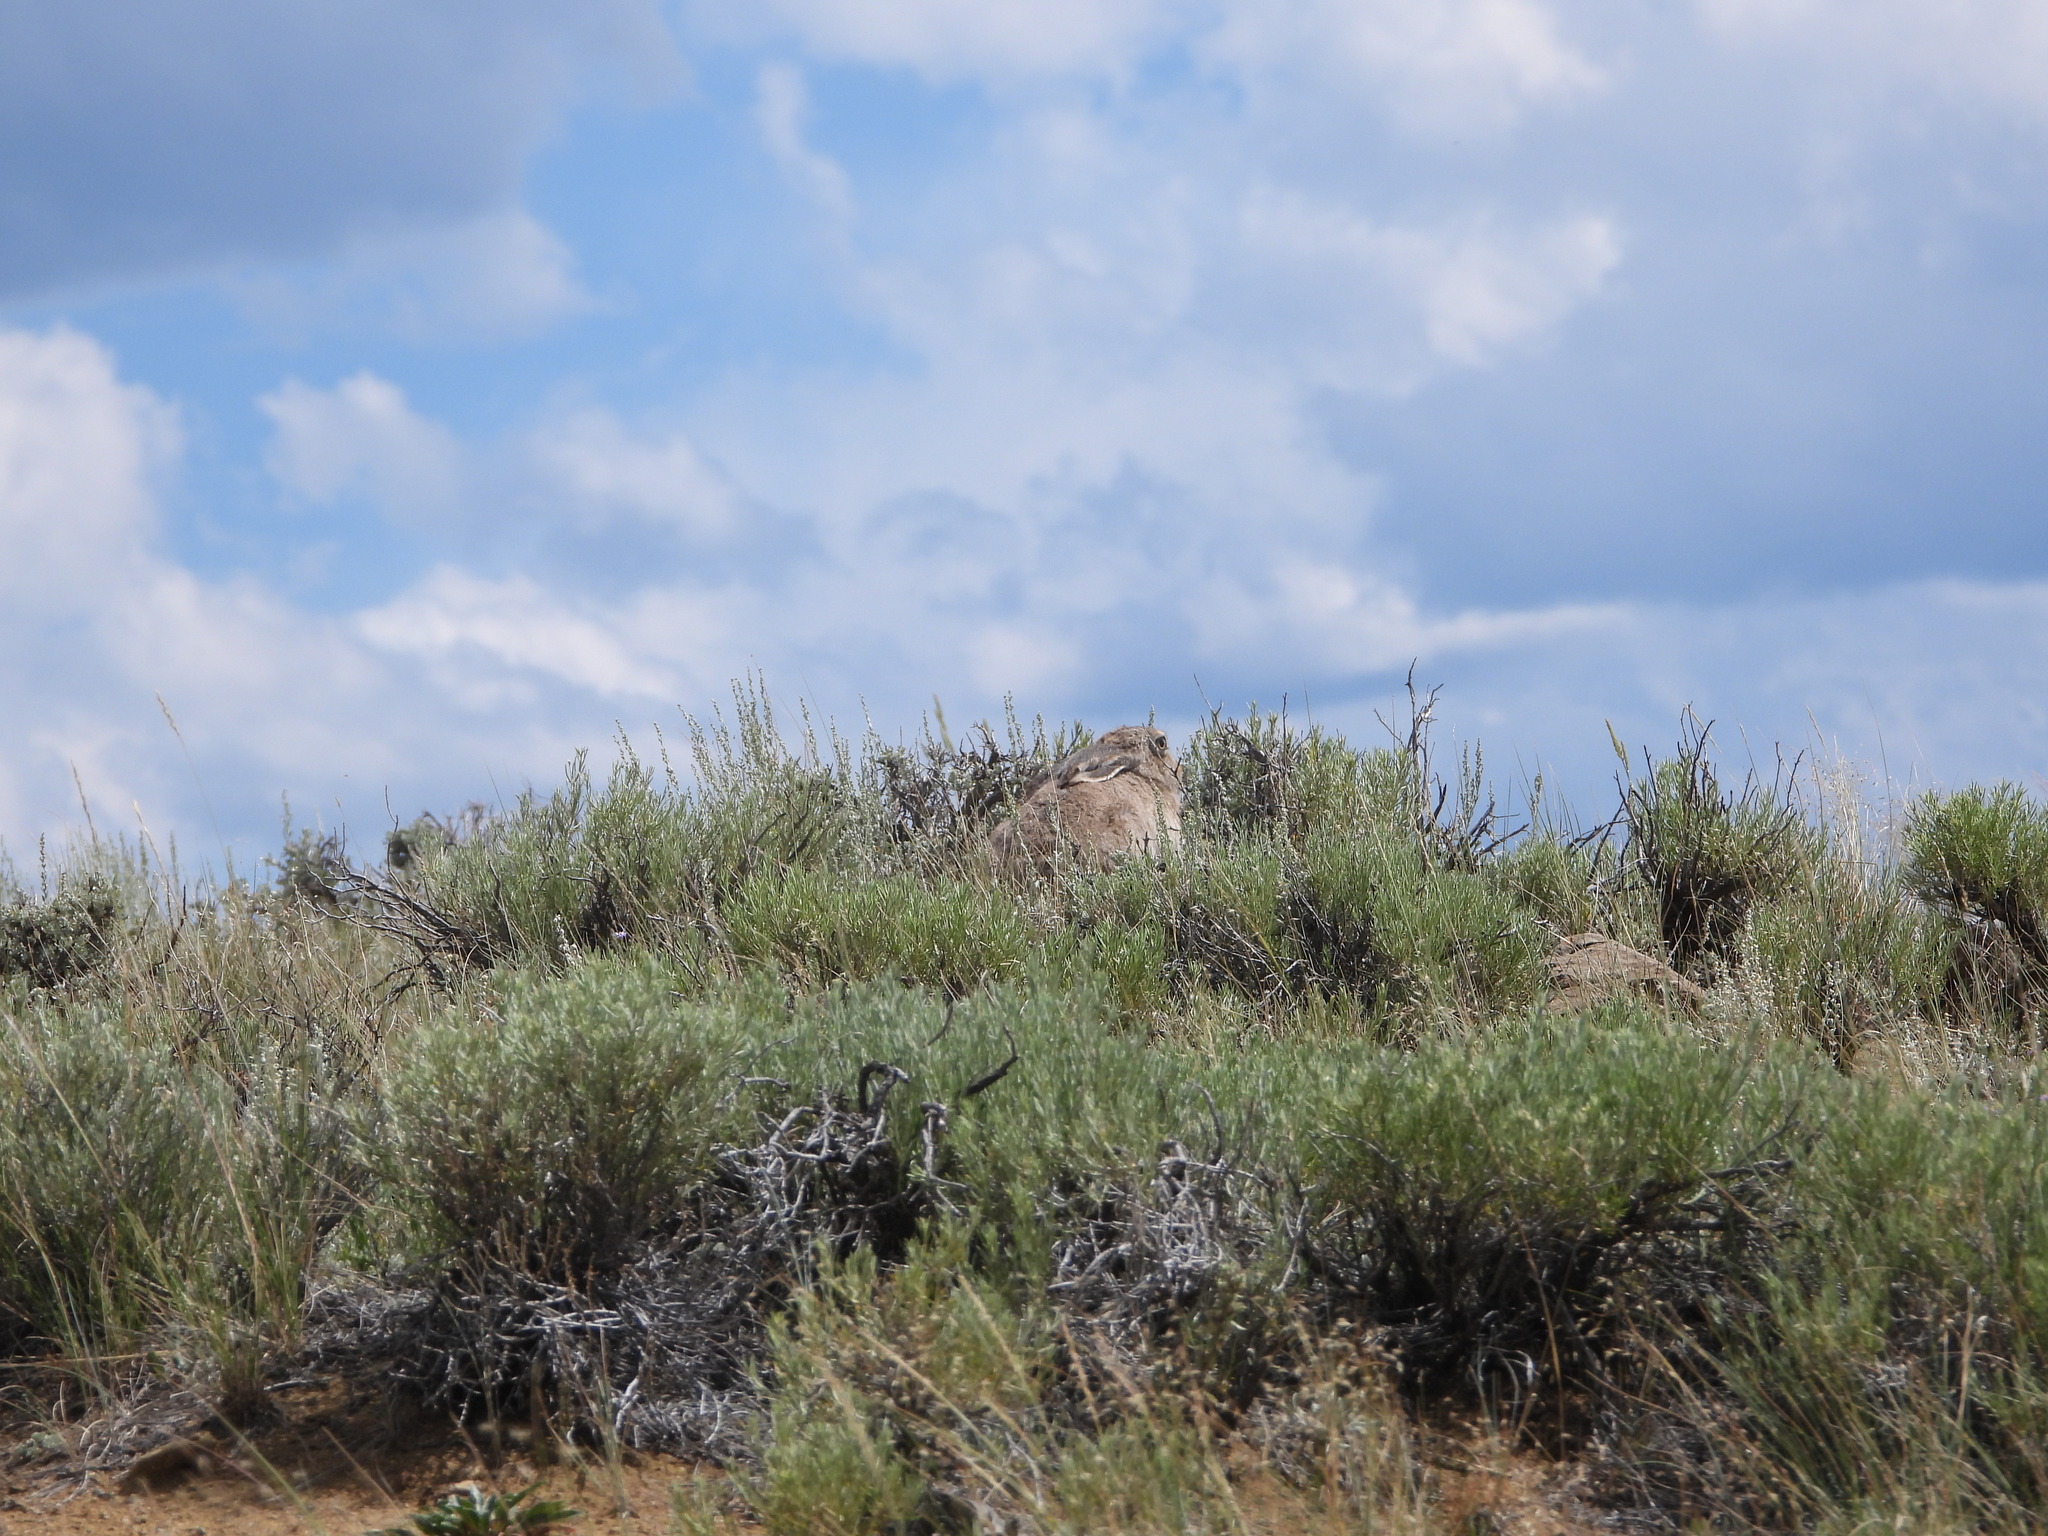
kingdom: Animalia
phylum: Chordata
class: Mammalia
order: Lagomorpha
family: Leporidae
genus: Lepus
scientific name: Lepus townsendii
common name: White-tailed jackrabbit
